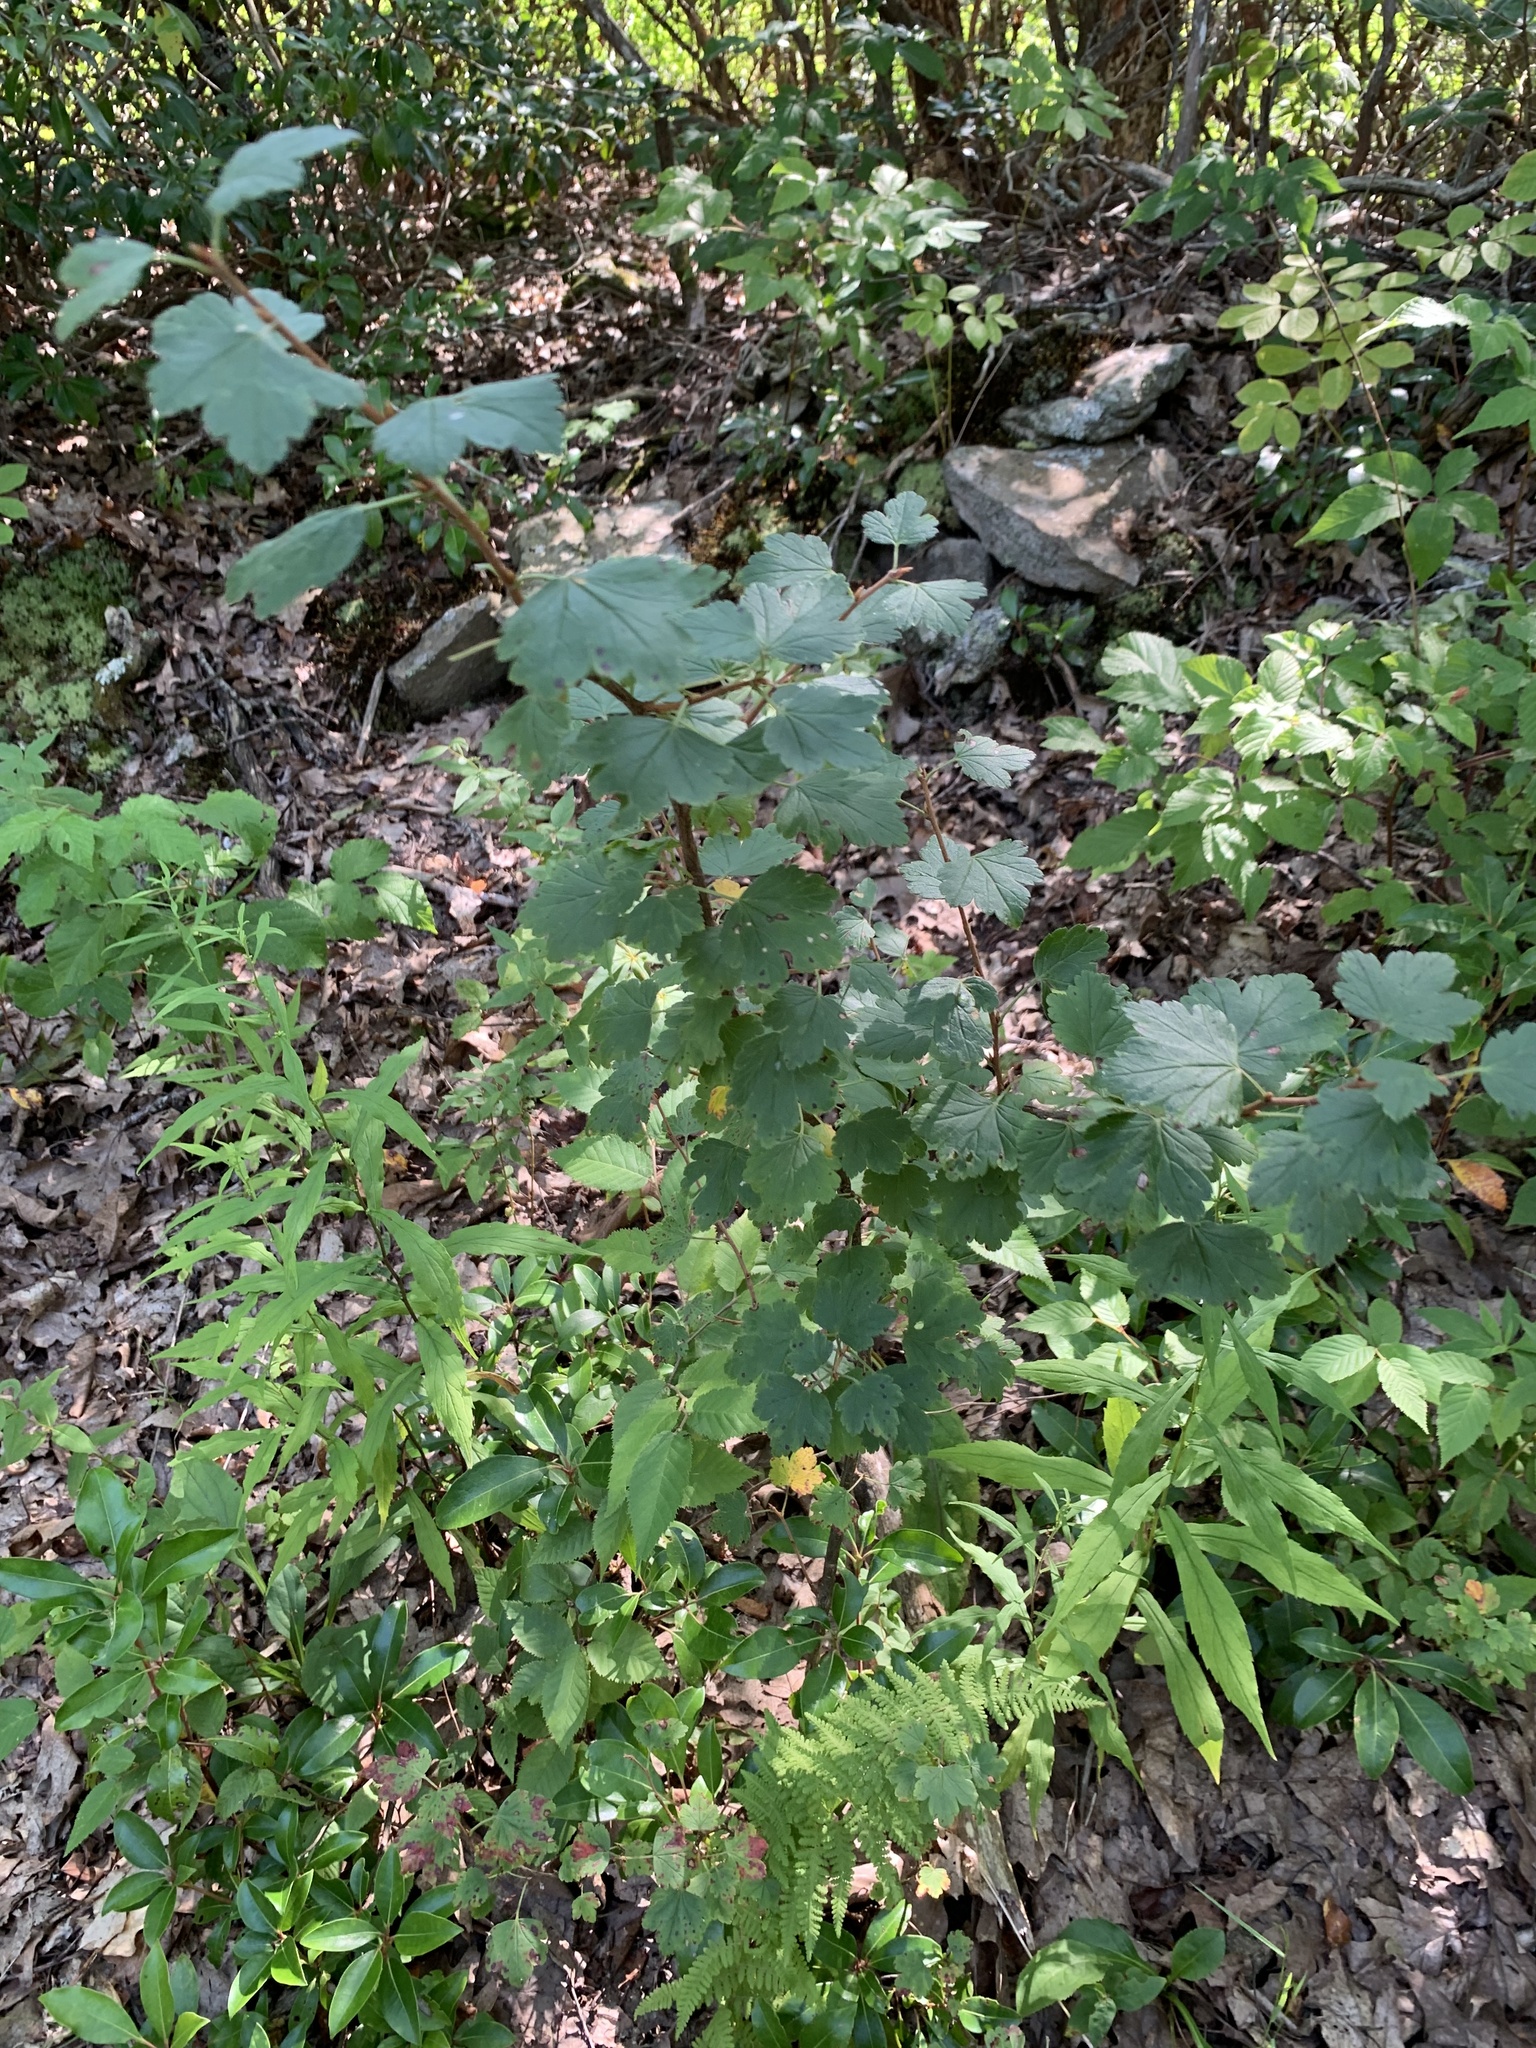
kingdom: Plantae
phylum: Tracheophyta
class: Magnoliopsida
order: Saxifragales
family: Grossulariaceae
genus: Ribes
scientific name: Ribes rotundifolium
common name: Appalachian gooseberry
